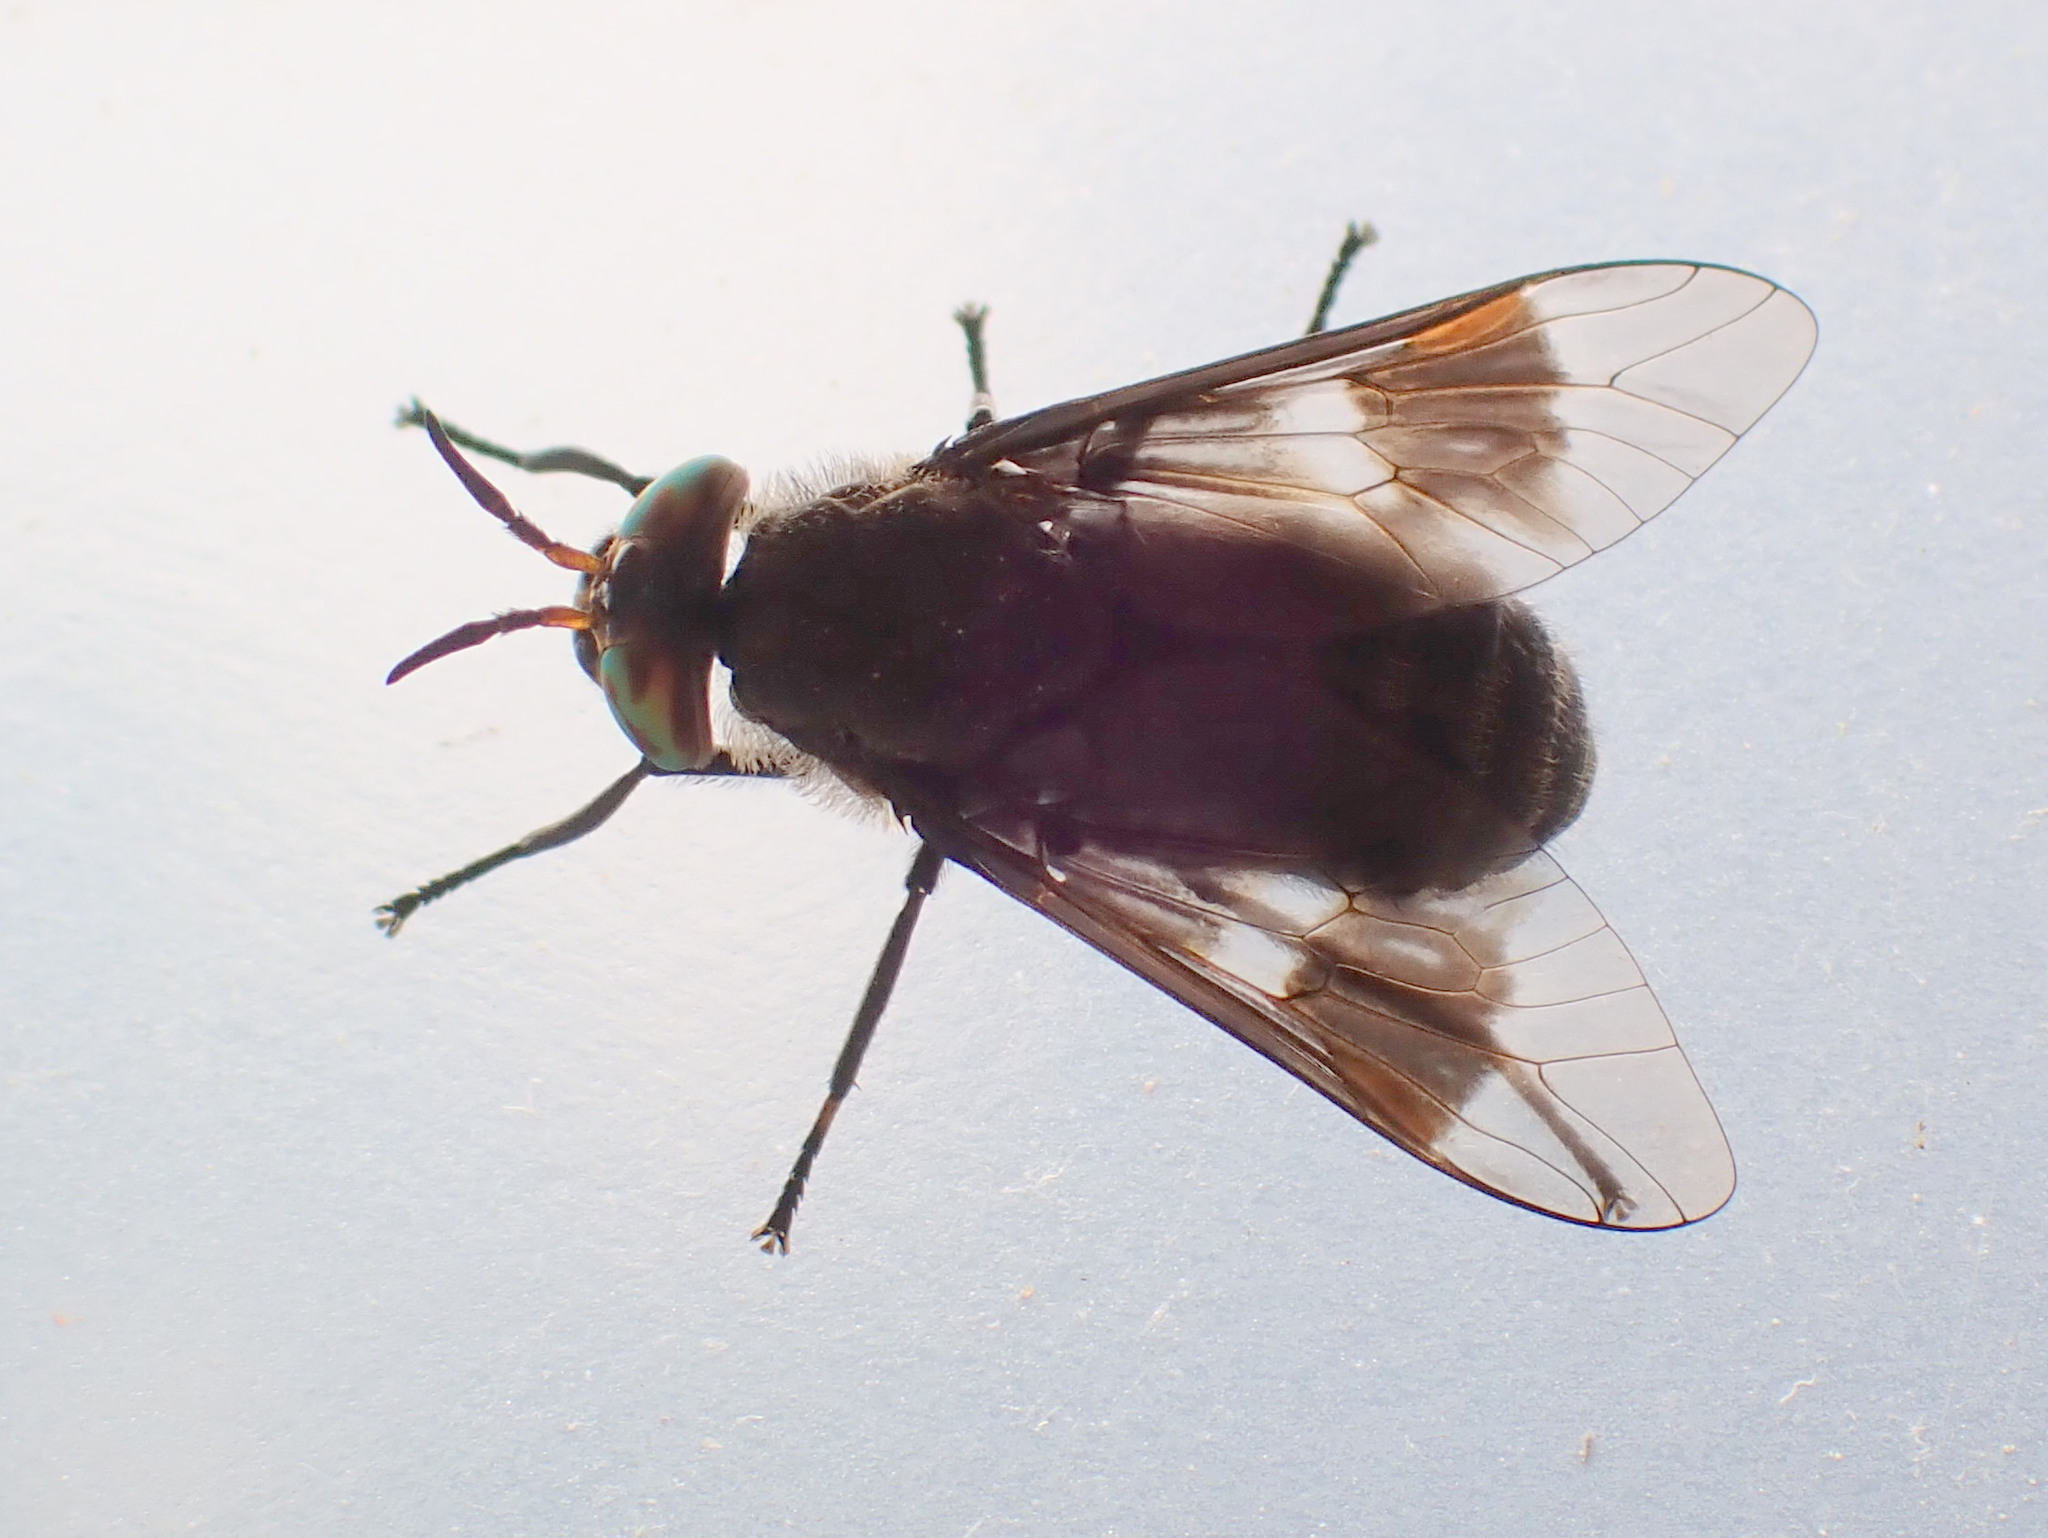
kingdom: Animalia
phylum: Arthropoda
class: Insecta
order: Diptera
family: Tabanidae
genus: Chrysops
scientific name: Chrysops ater
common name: Dark deer fly
